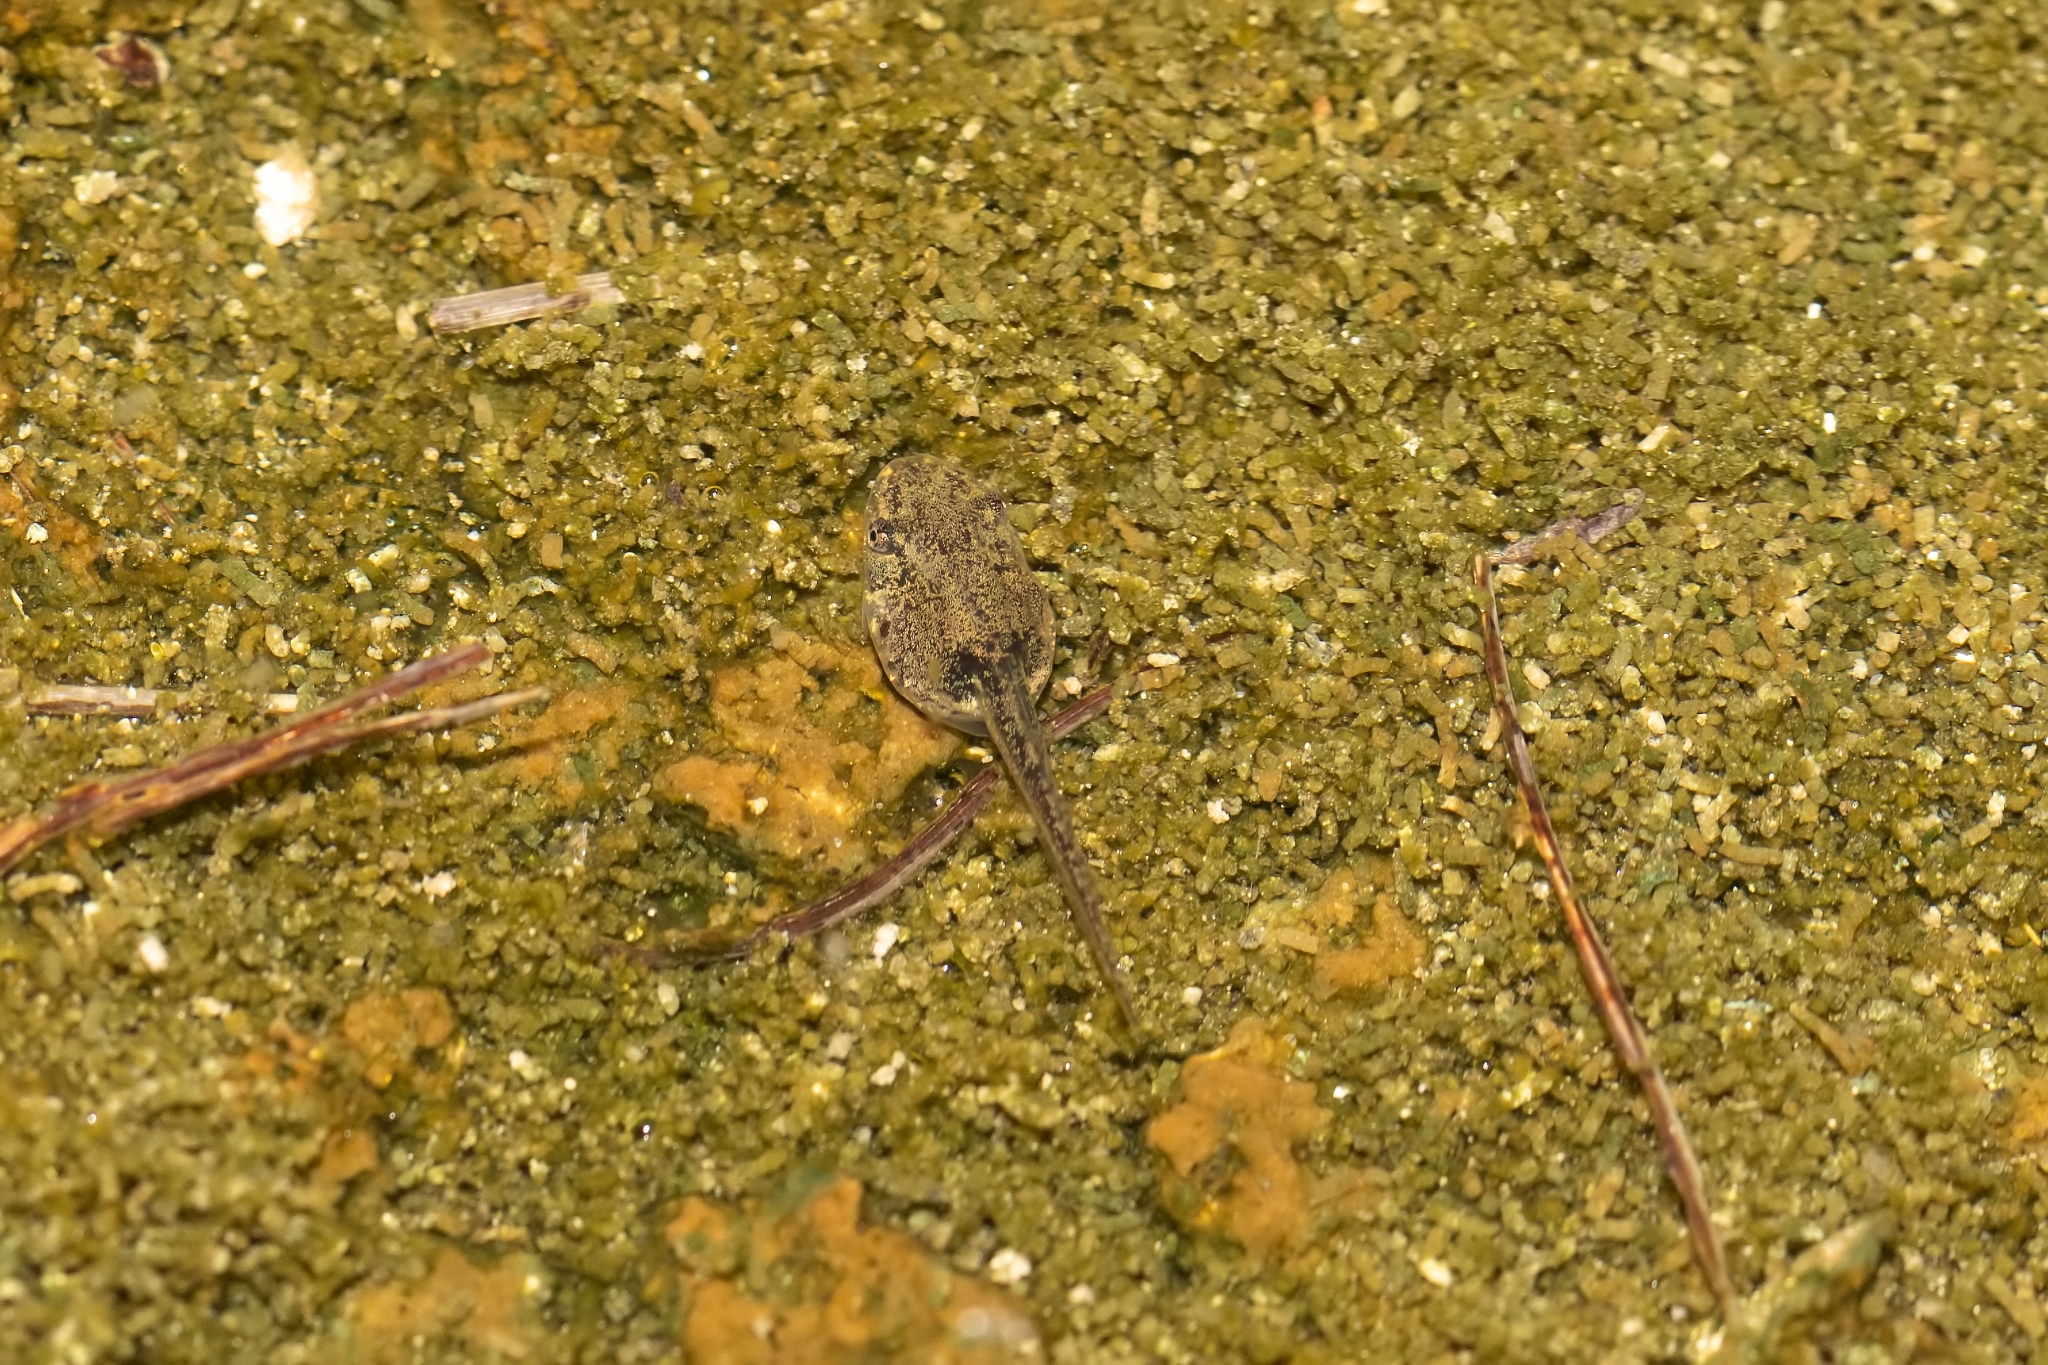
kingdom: Animalia
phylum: Chordata
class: Amphibia
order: Anura
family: Hylidae
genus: Osteopilus
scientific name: Osteopilus septentrionalis
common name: Cuban treefrog
